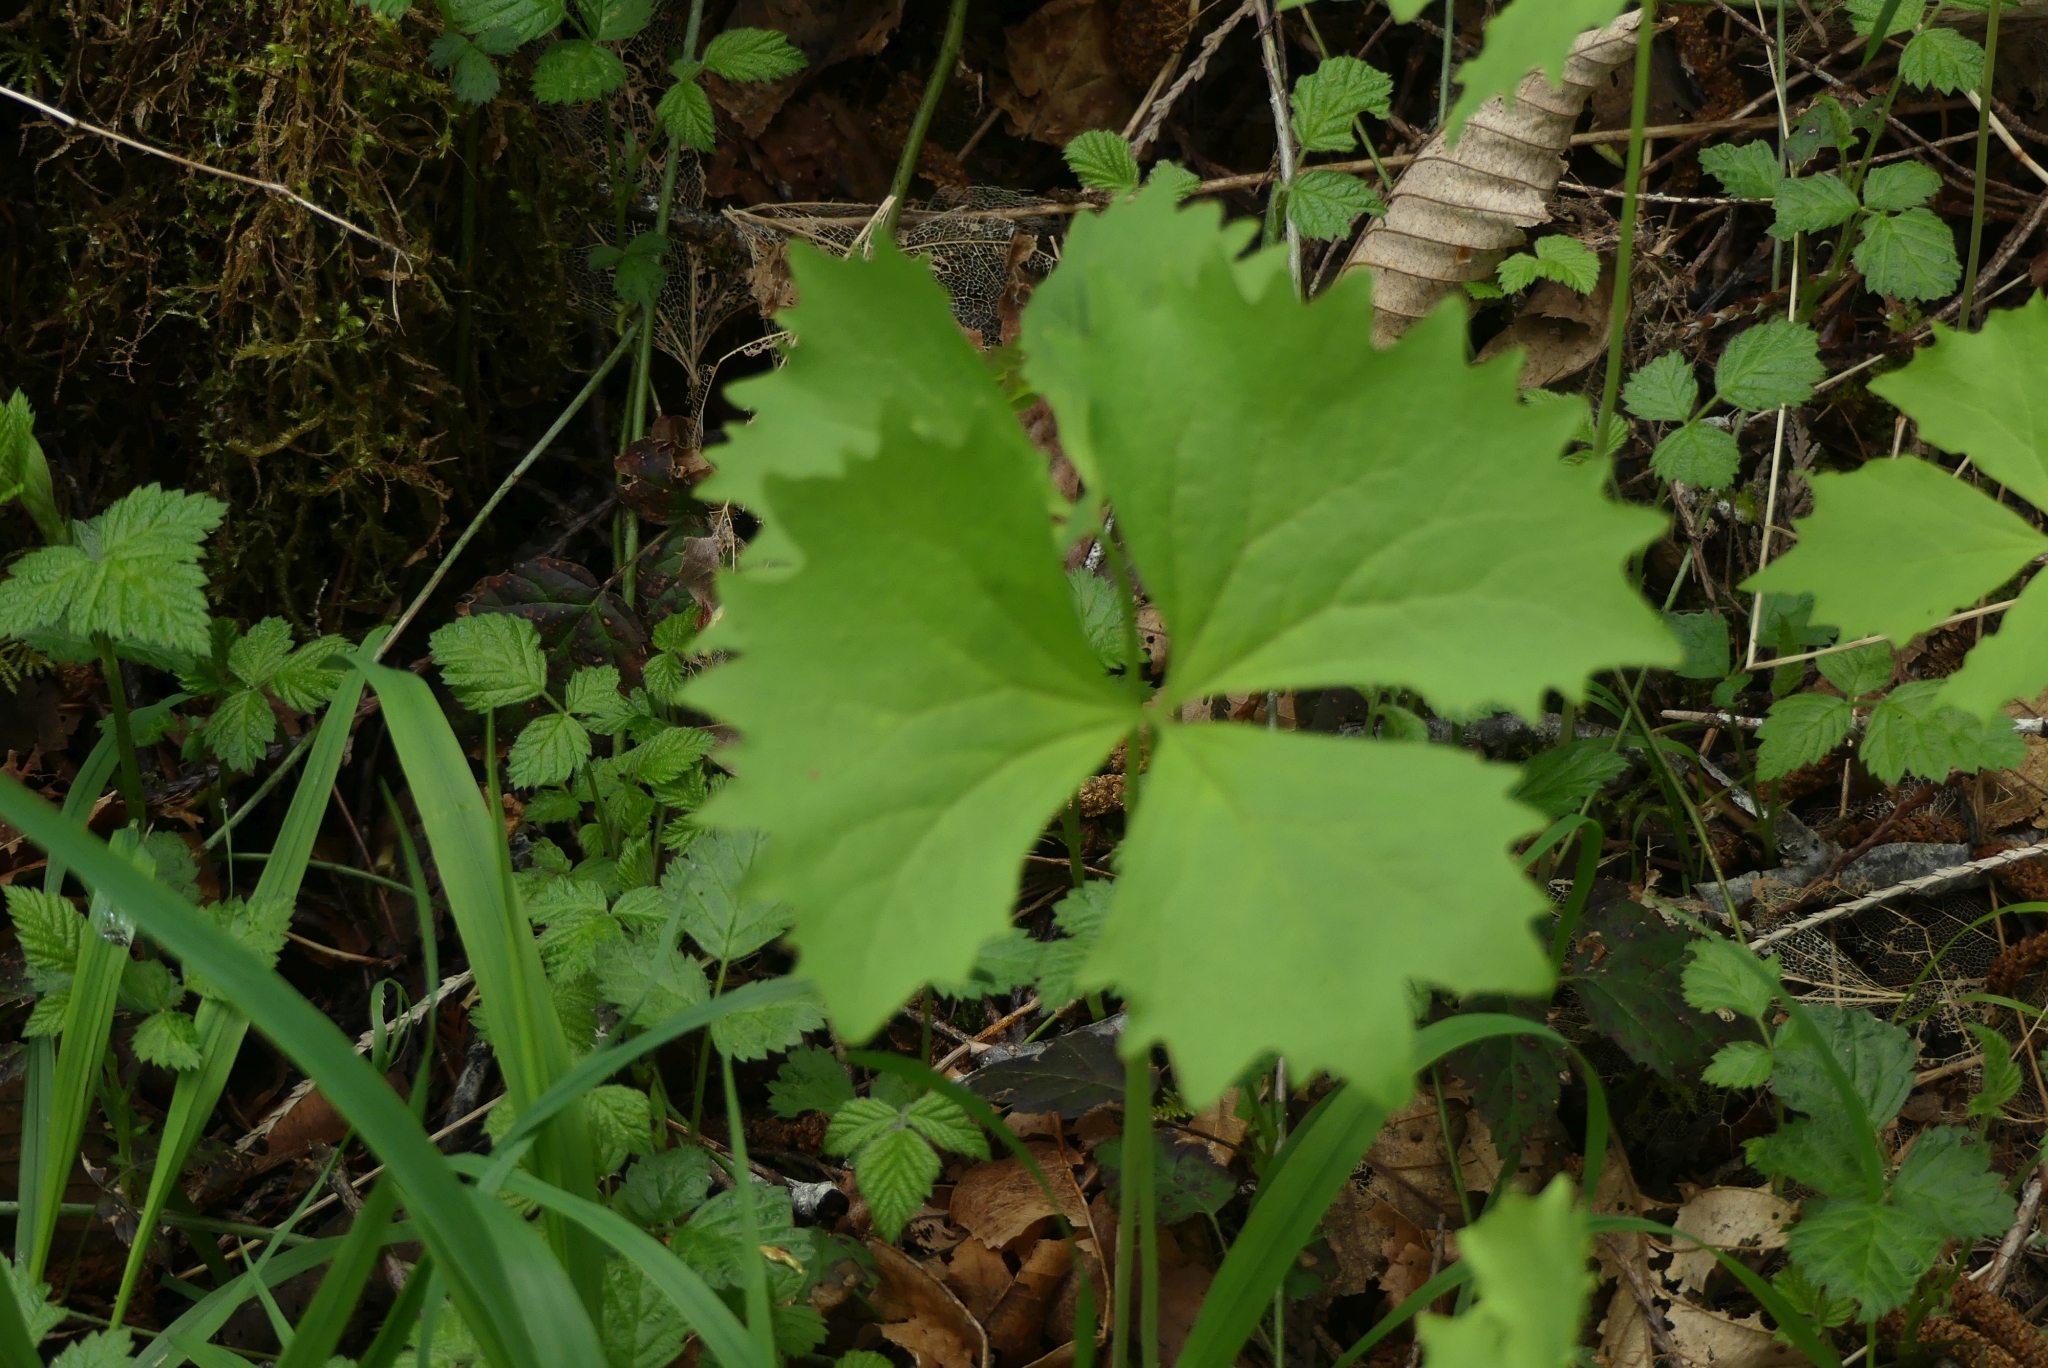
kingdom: Plantae
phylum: Tracheophyta
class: Magnoliopsida
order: Ranunculales
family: Berberidaceae
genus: Achlys
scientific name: Achlys triphylla
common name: Vanilla-leaf
